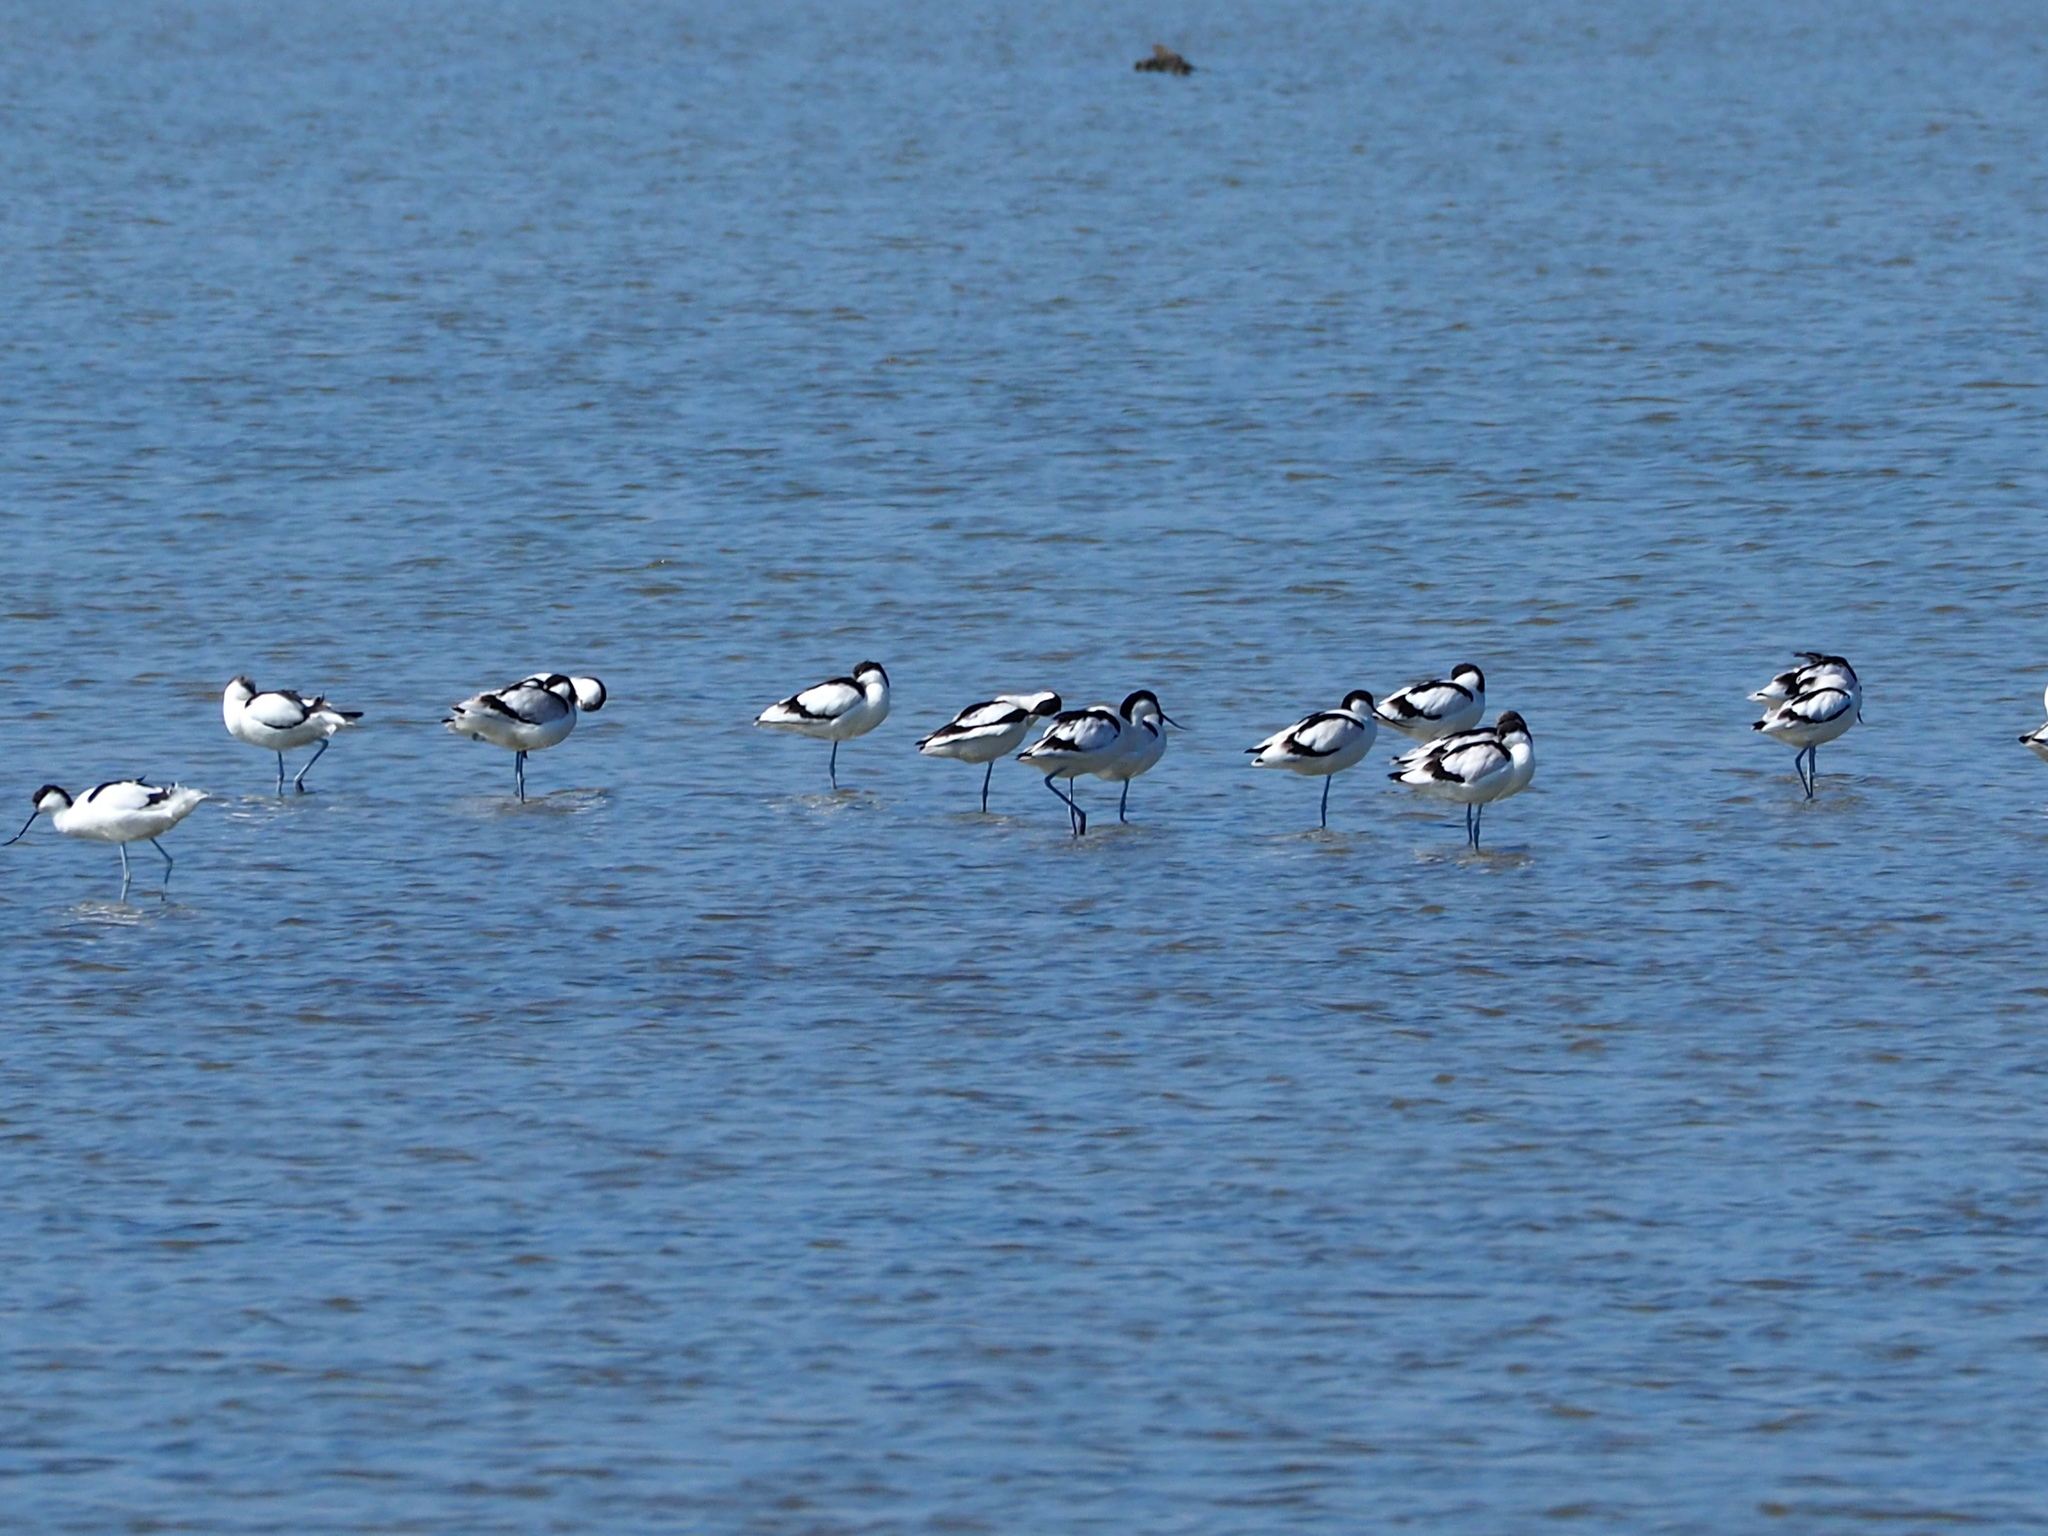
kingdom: Animalia
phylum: Chordata
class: Aves
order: Charadriiformes
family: Recurvirostridae
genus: Recurvirostra
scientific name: Recurvirostra avosetta
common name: Pied avocet
